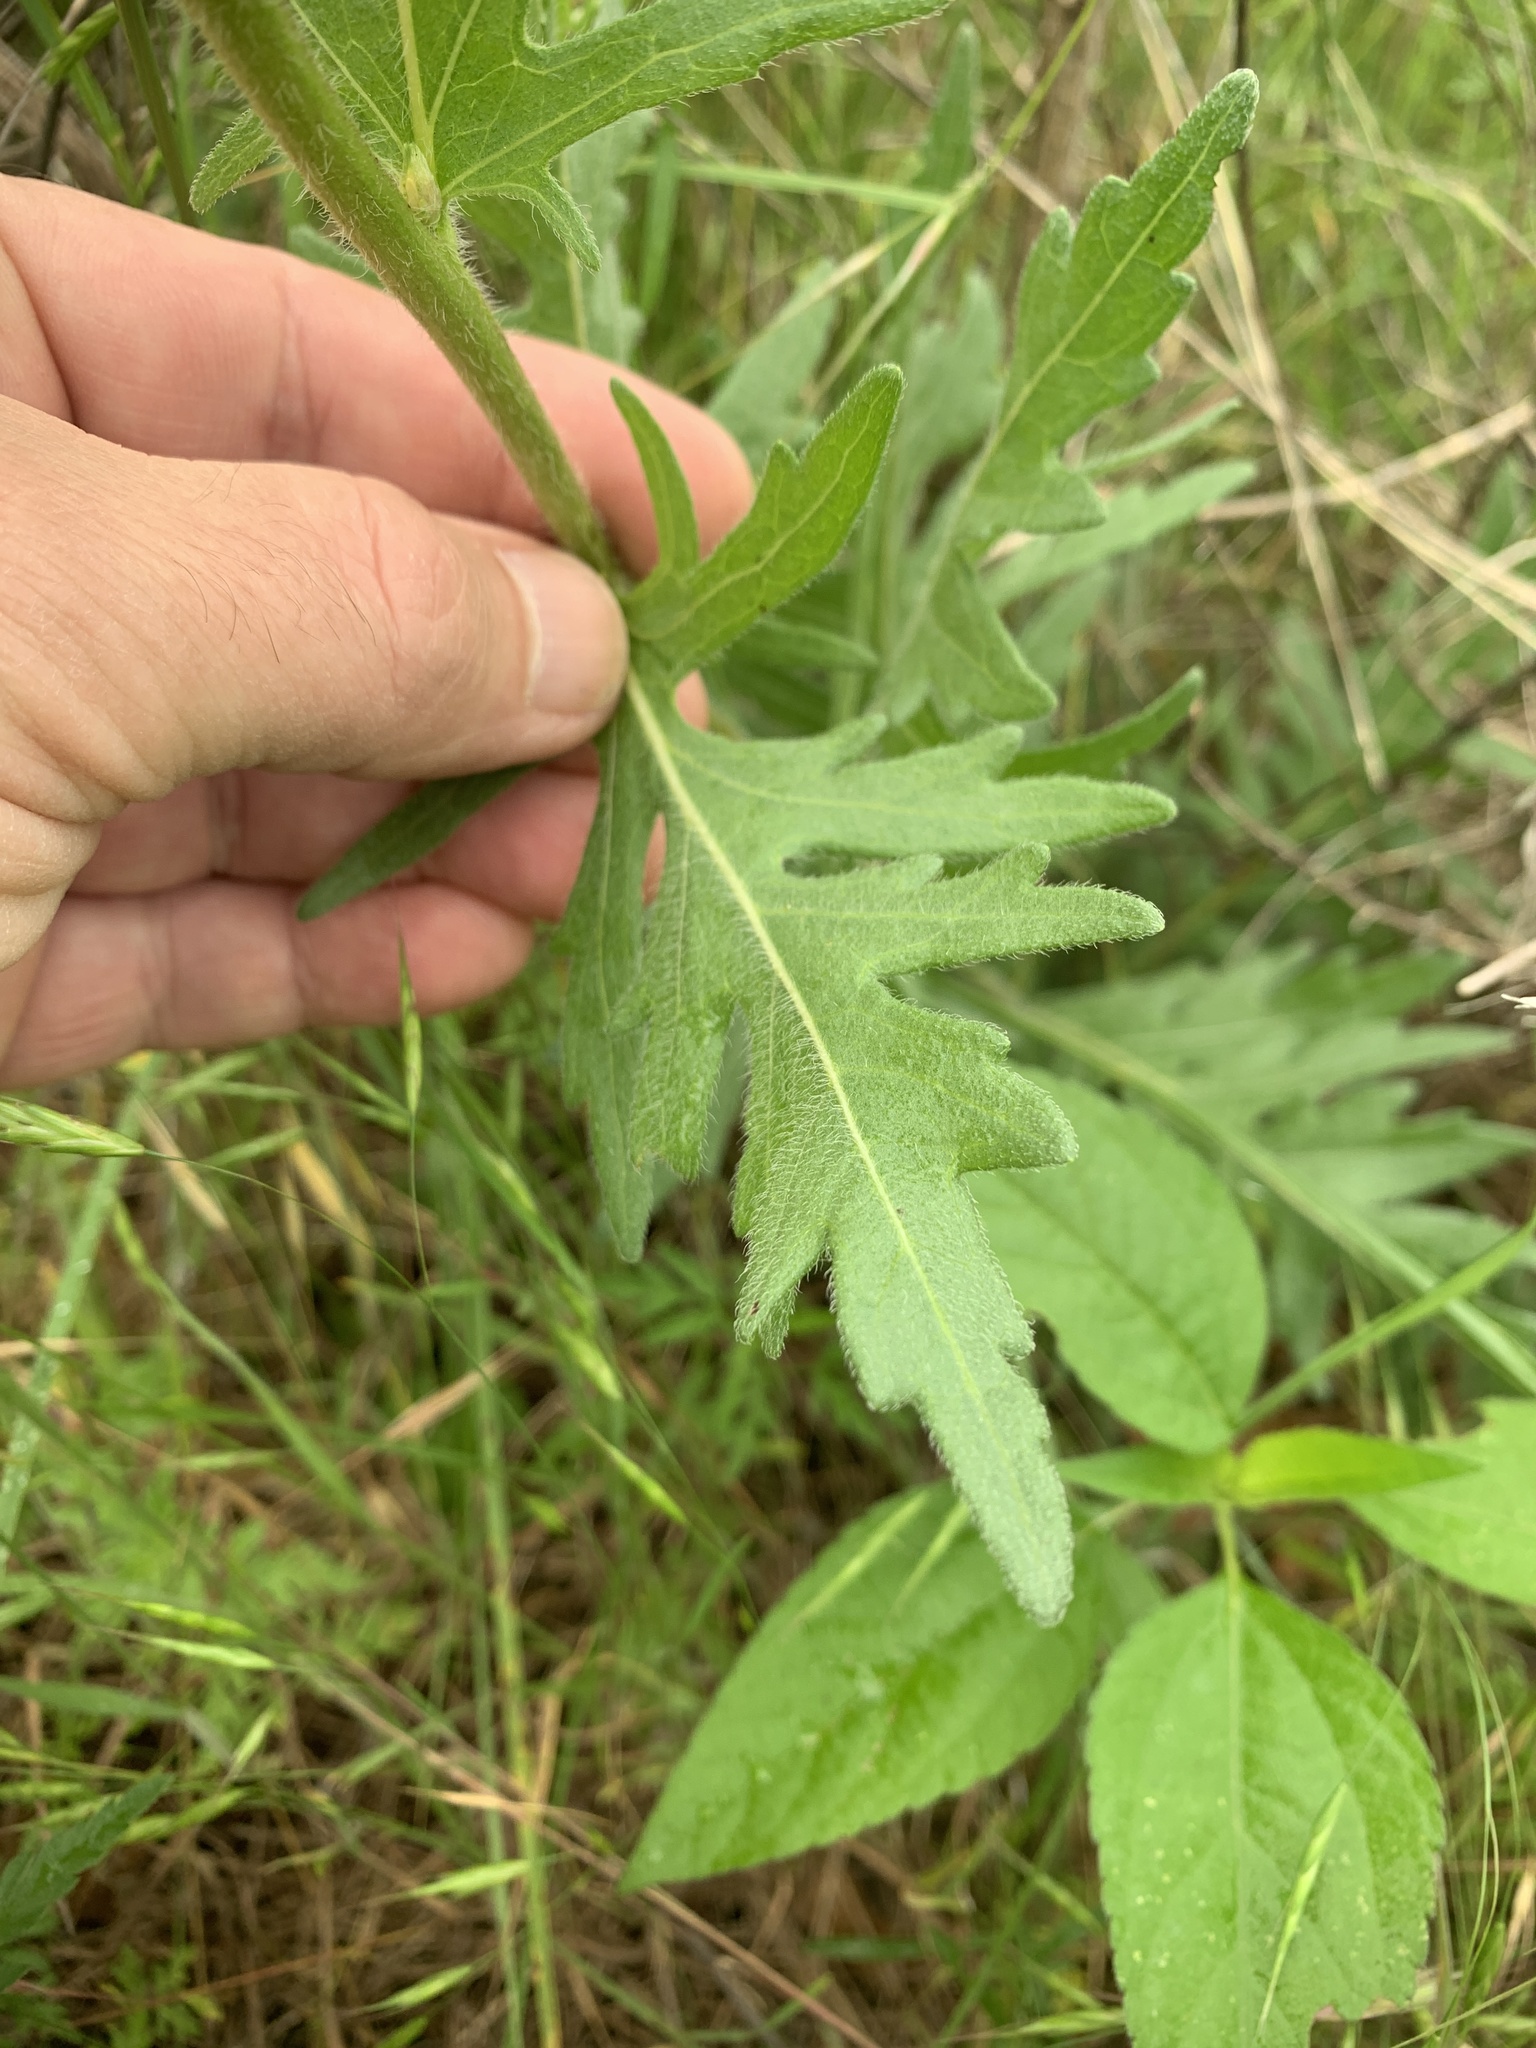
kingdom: Plantae
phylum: Tracheophyta
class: Magnoliopsida
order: Asterales
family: Asteraceae
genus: Engelmannia
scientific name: Engelmannia peristenia
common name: Engelmann's daisy
